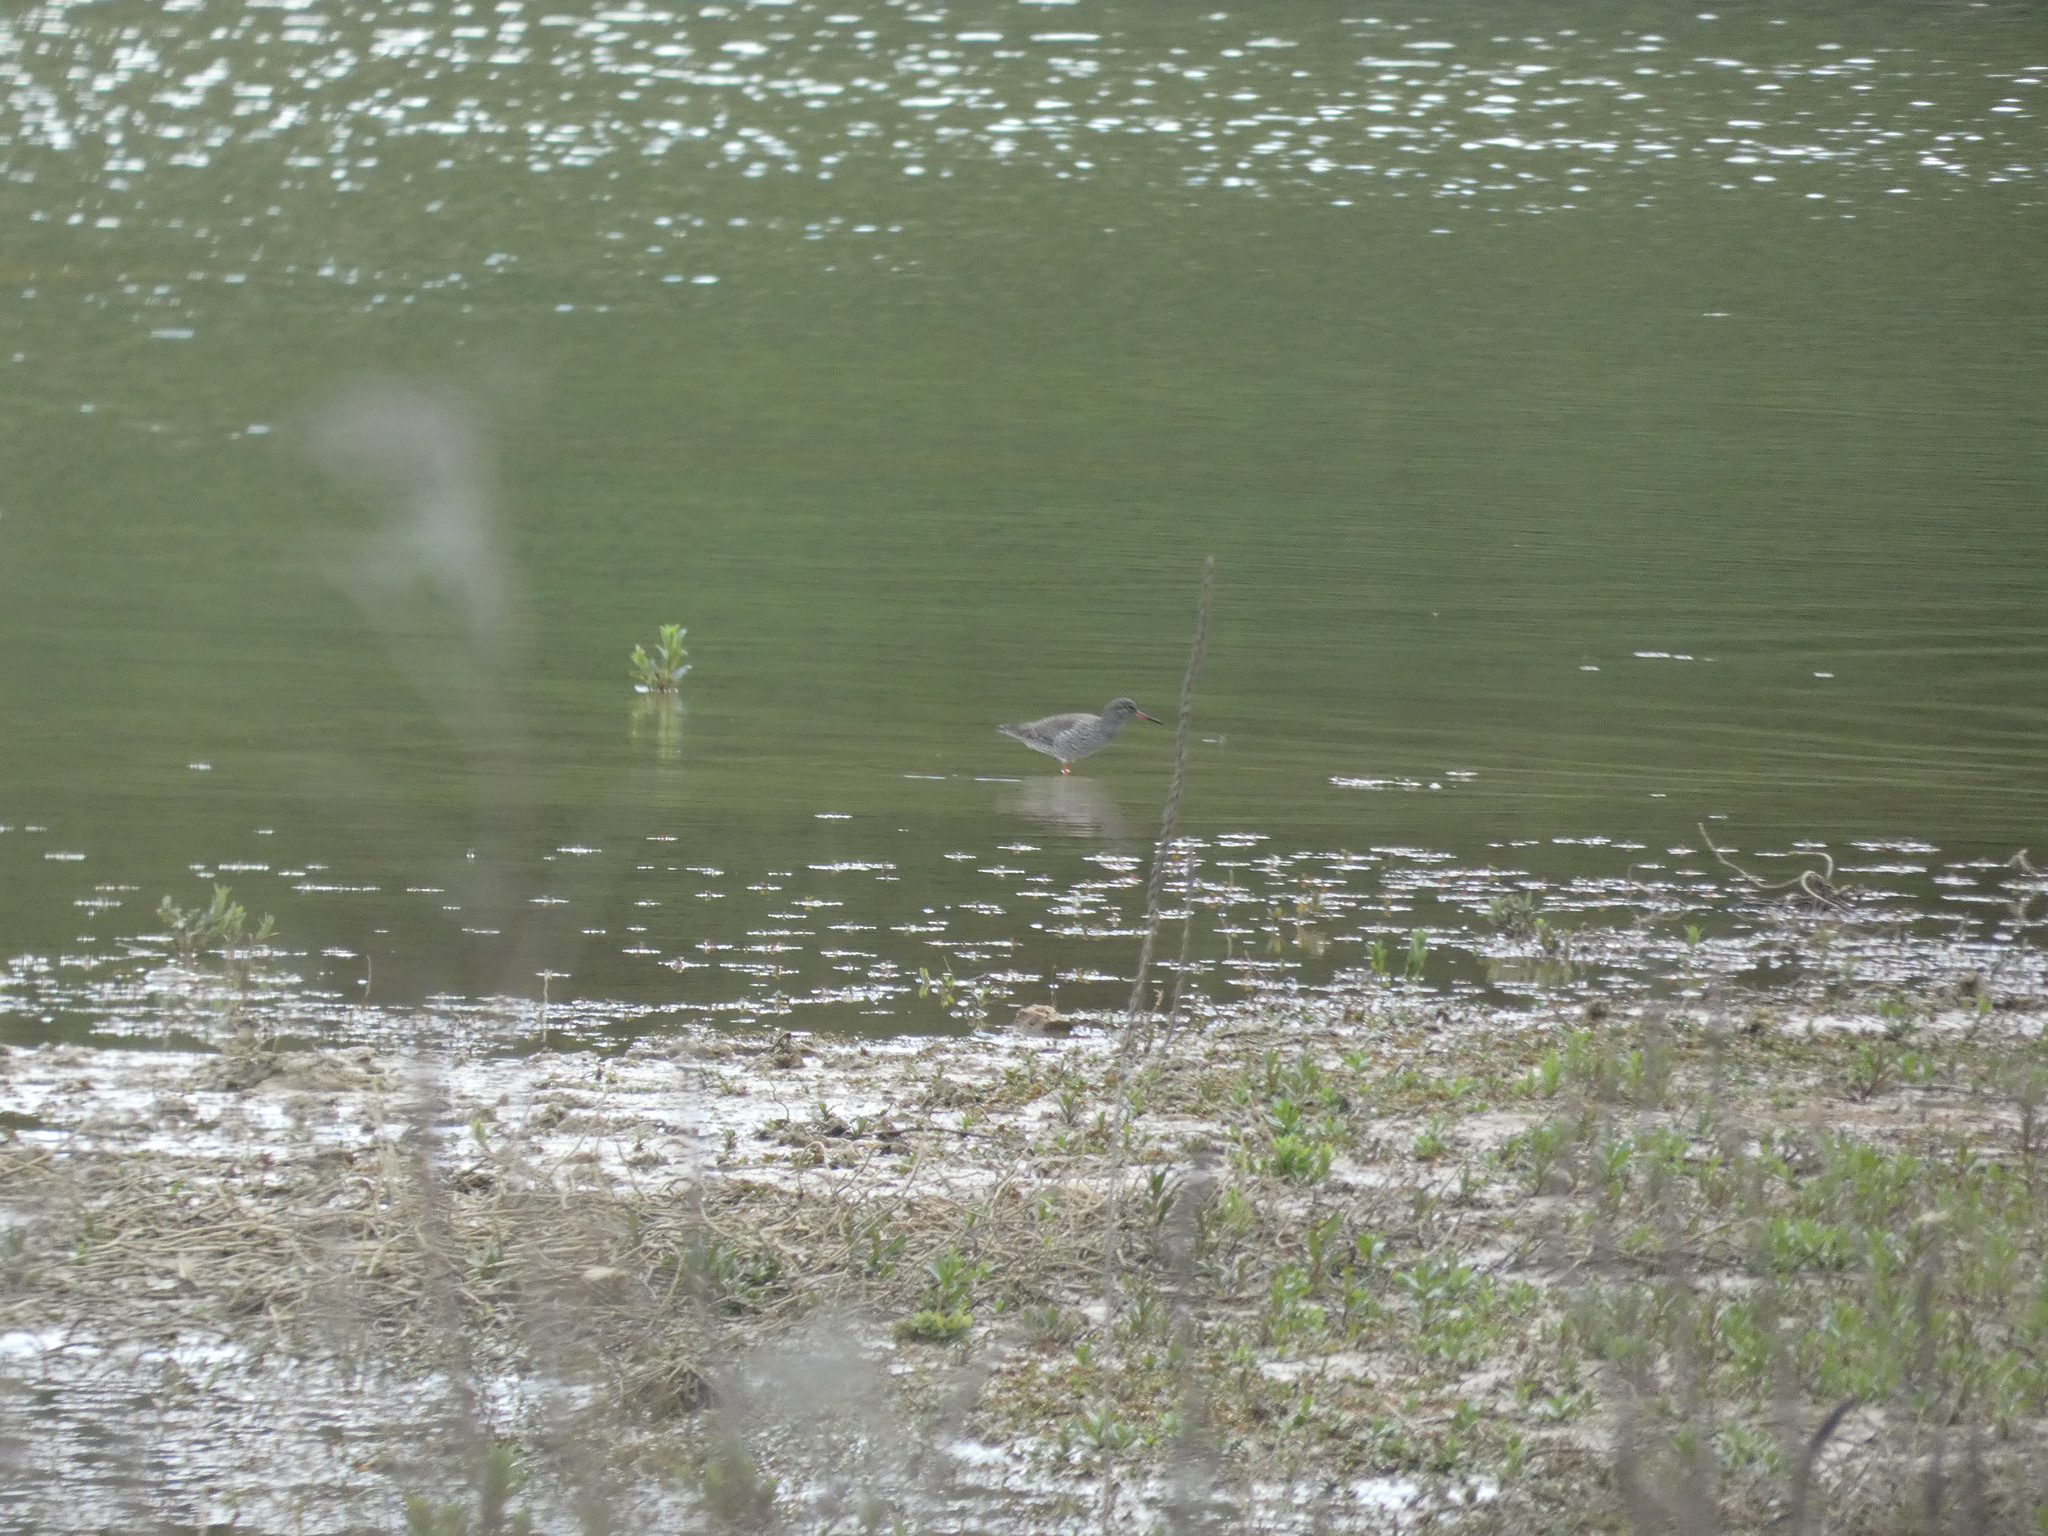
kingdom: Animalia
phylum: Chordata
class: Aves
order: Charadriiformes
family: Scolopacidae
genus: Tringa
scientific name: Tringa totanus
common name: Common redshank
